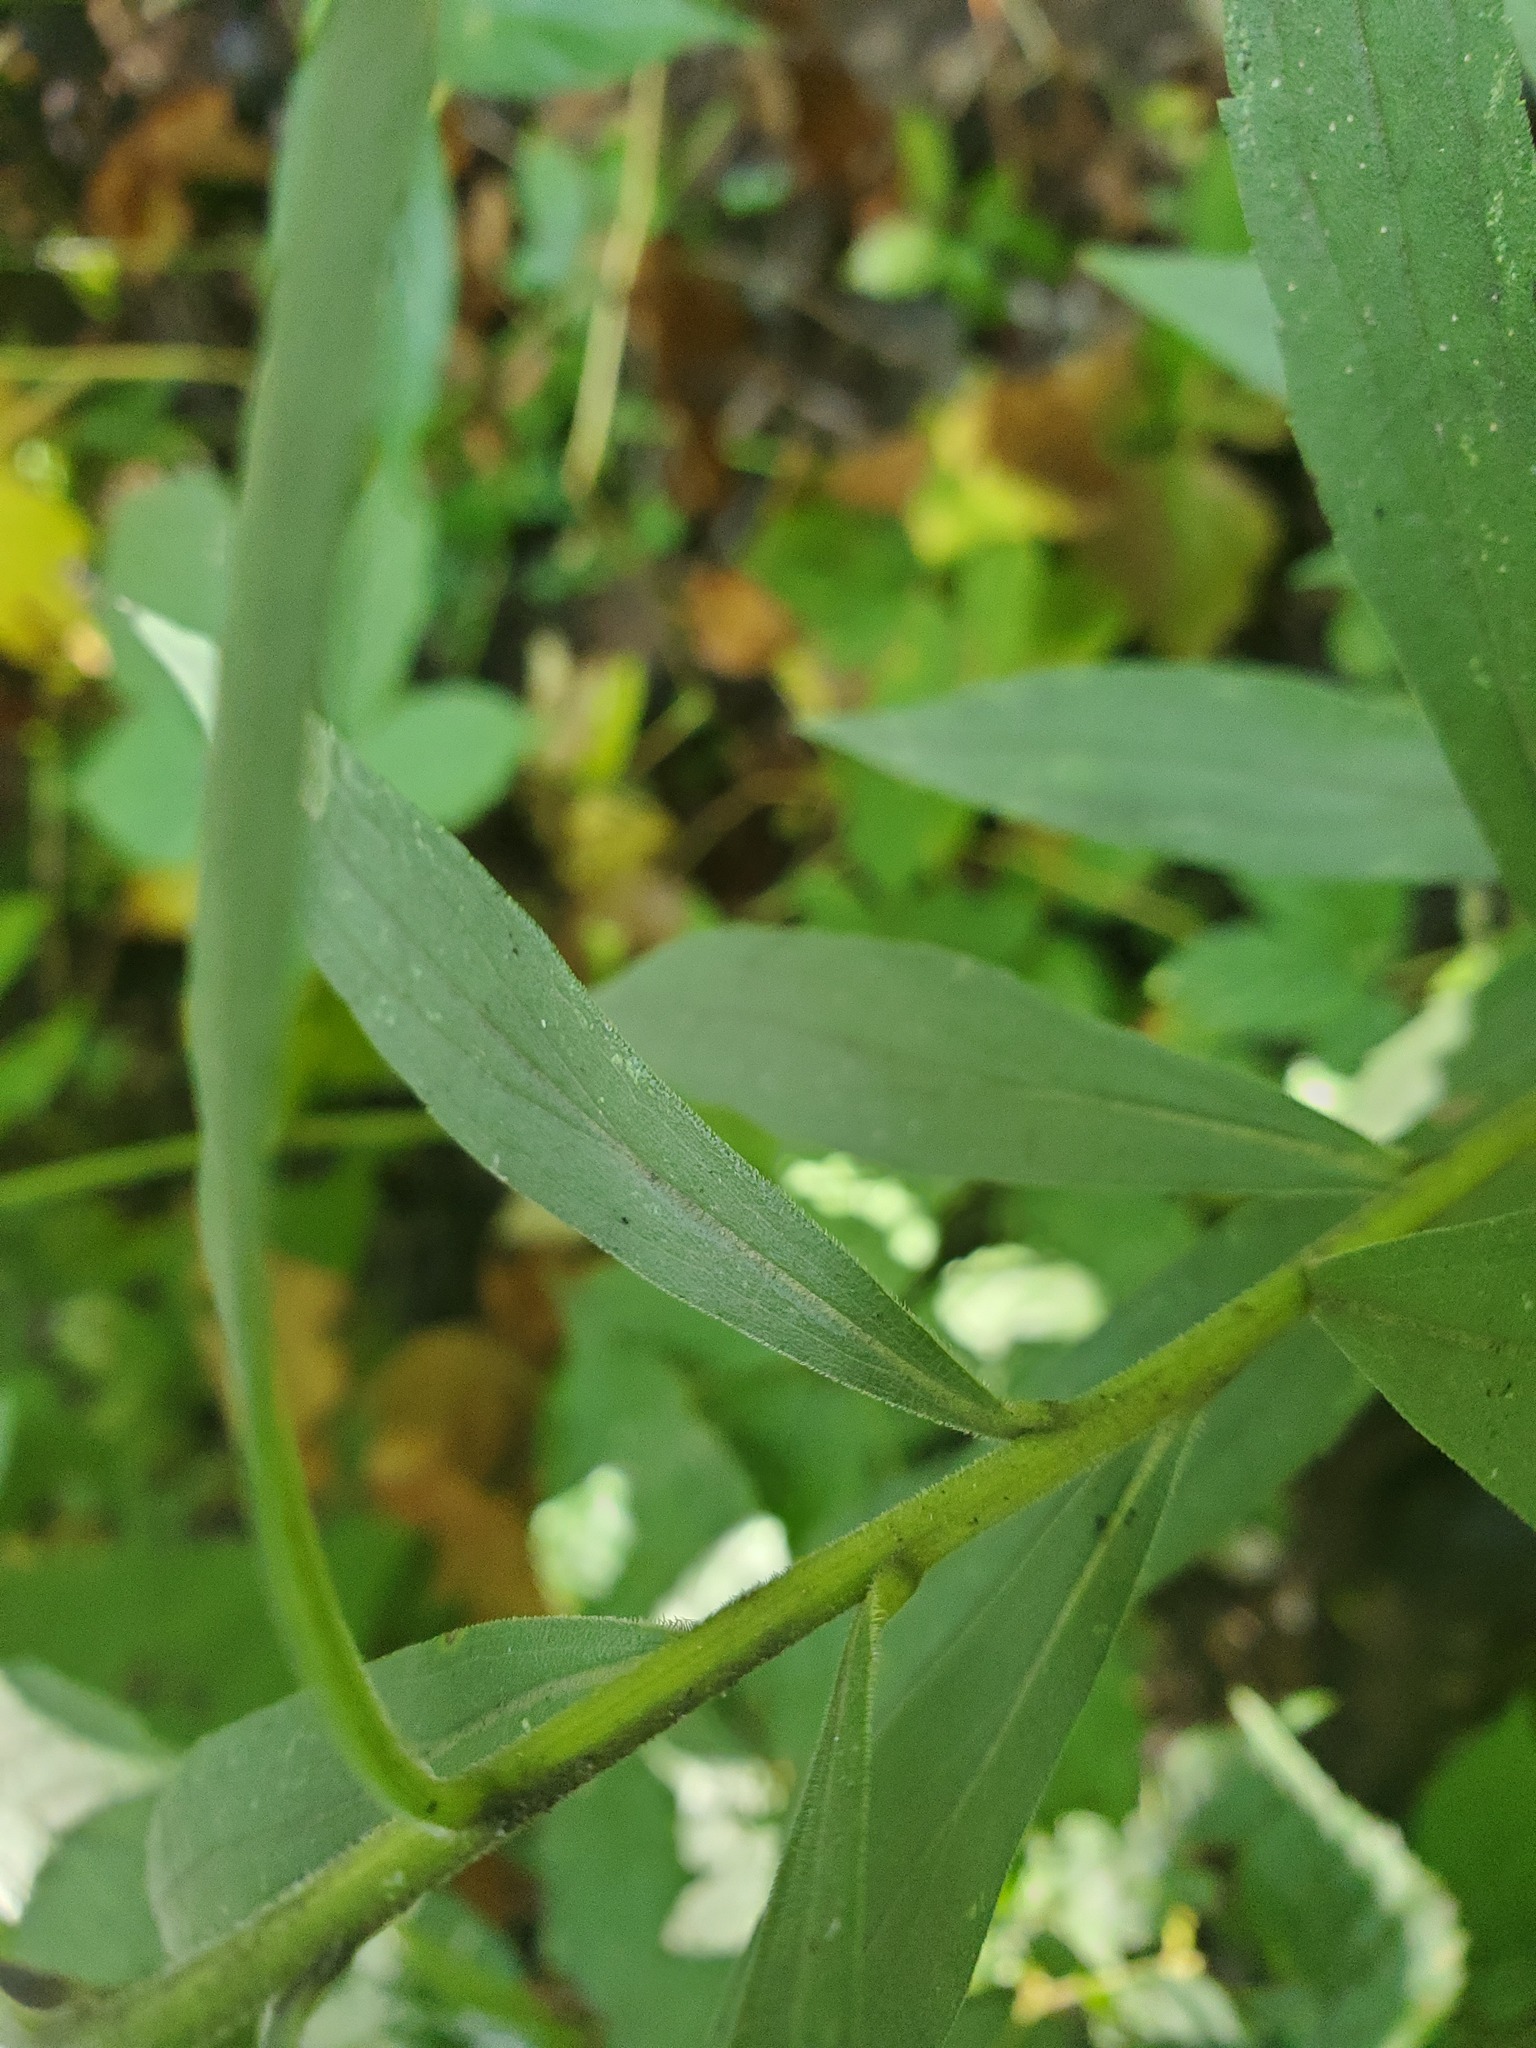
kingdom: Plantae
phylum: Tracheophyta
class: Magnoliopsida
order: Asterales
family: Asteraceae
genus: Solidago
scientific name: Solidago altissima
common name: Late goldenrod
